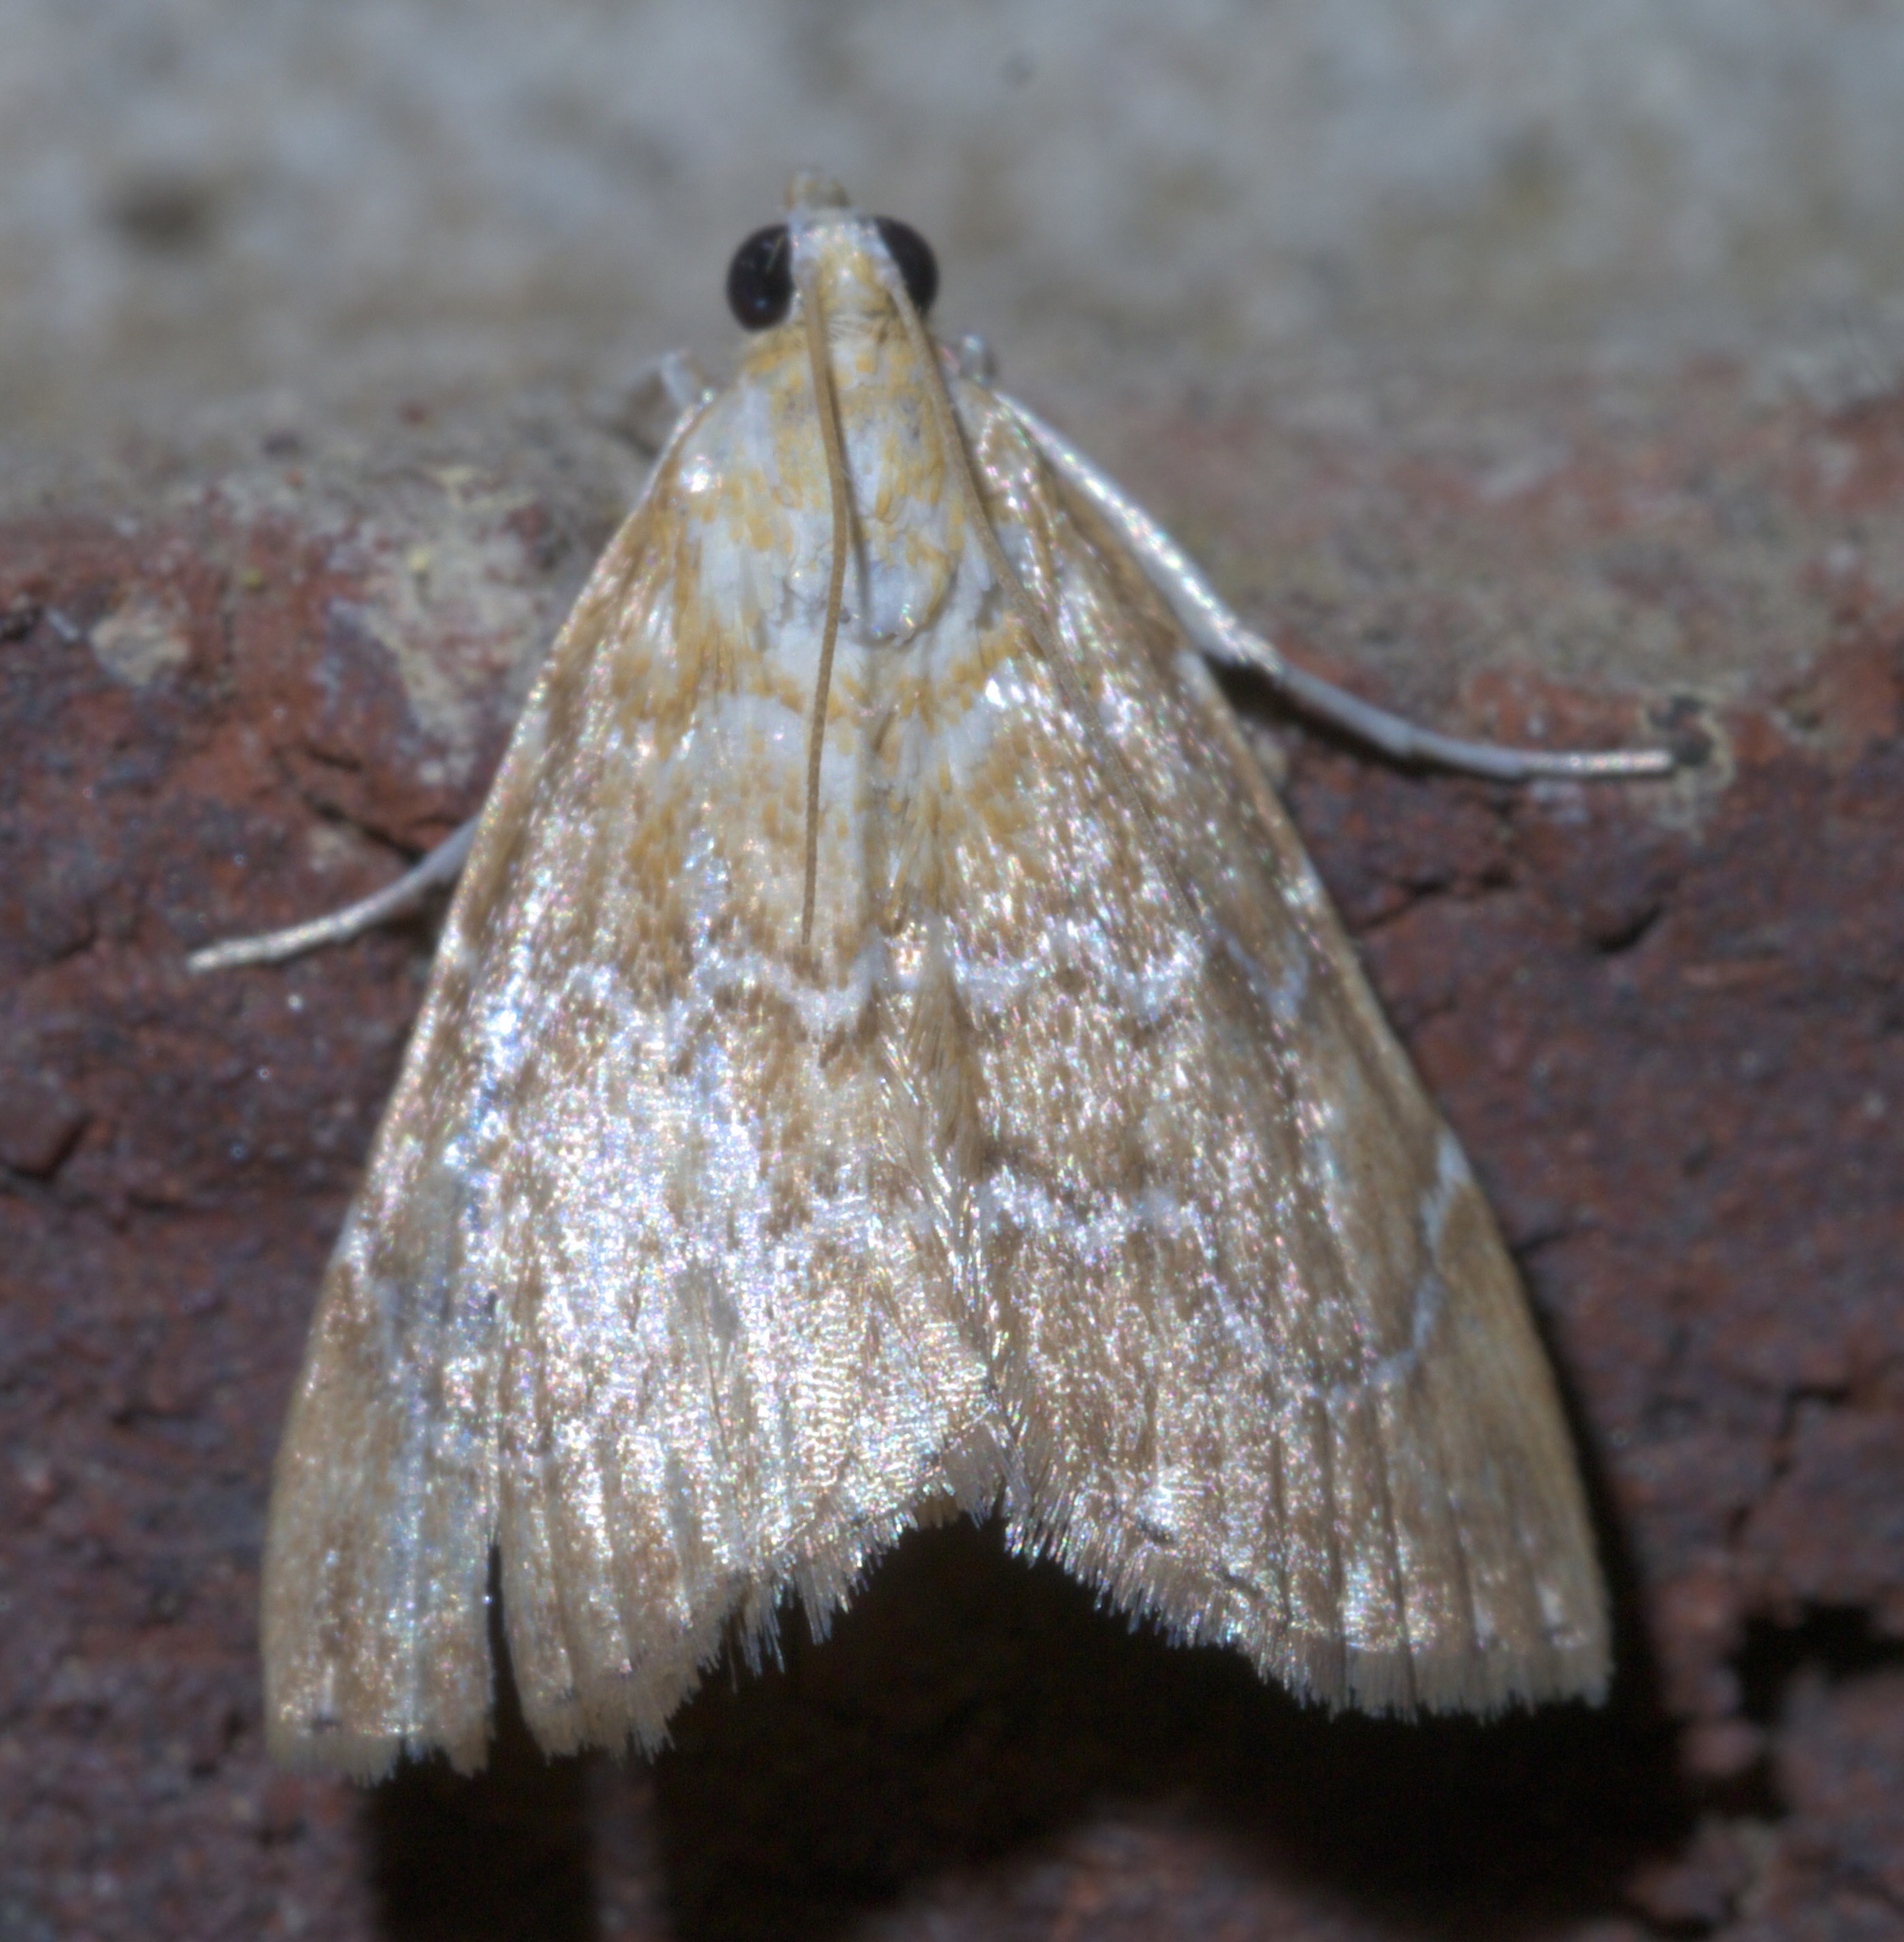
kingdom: Animalia
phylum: Arthropoda
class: Insecta
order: Lepidoptera
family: Crambidae
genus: Glaphyria
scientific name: Glaphyria sesquistrialis
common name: White-roped glaphyria
